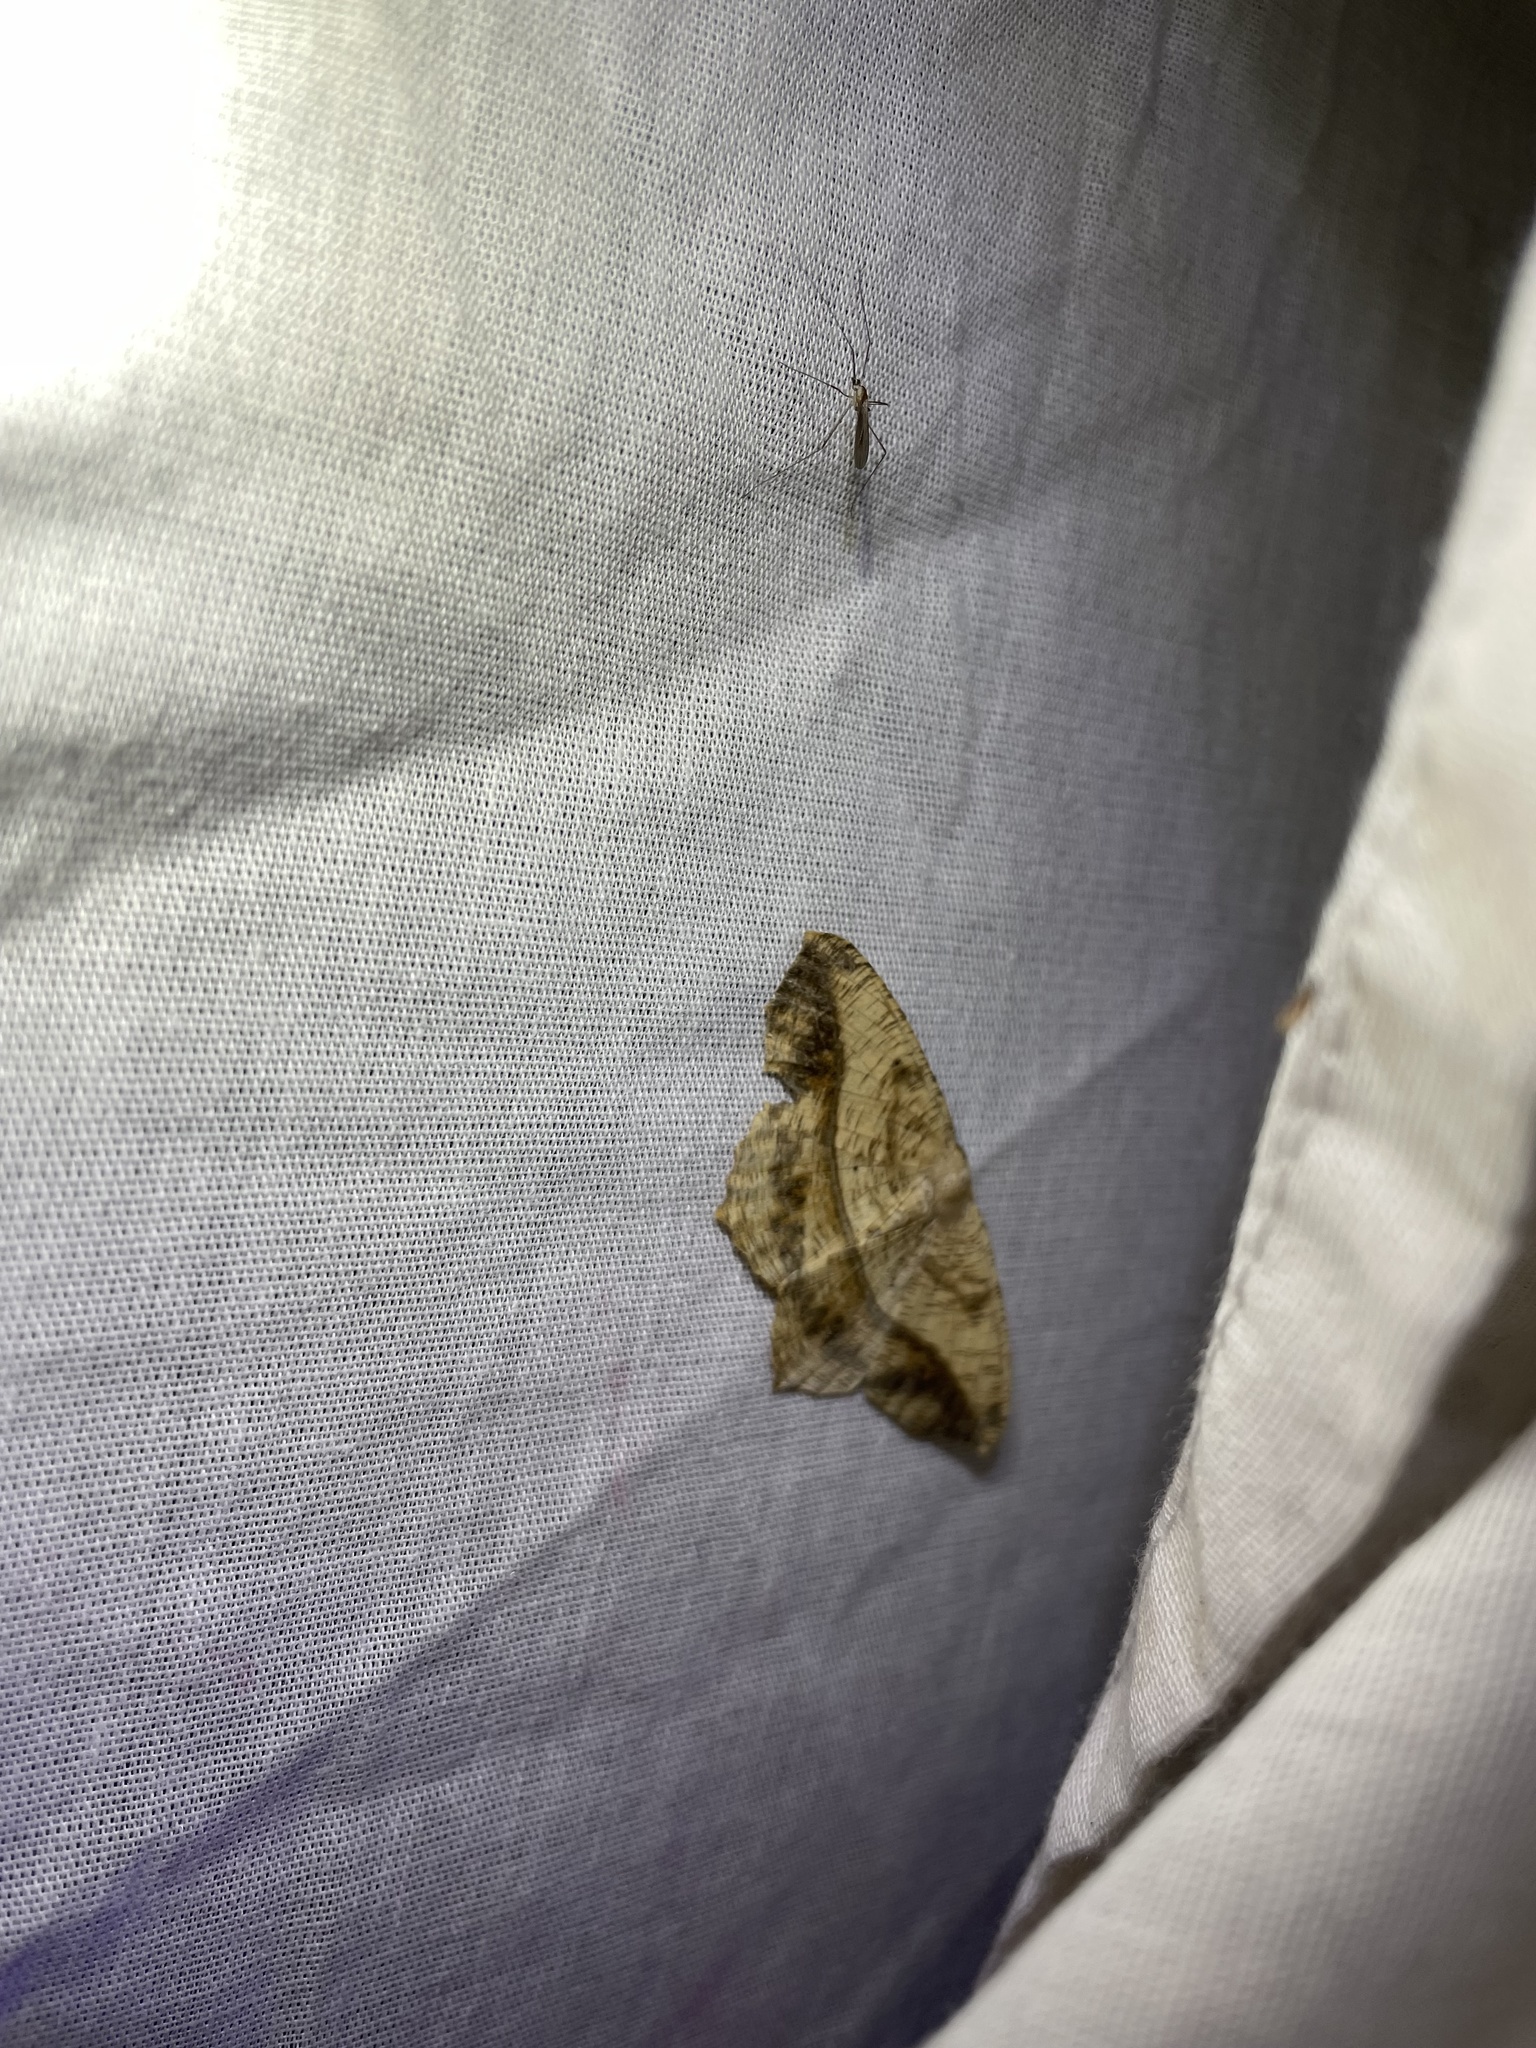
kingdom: Animalia
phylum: Arthropoda
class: Insecta
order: Lepidoptera
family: Geometridae
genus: Prochoerodes
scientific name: Prochoerodes lineola
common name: Large maple spanworm
